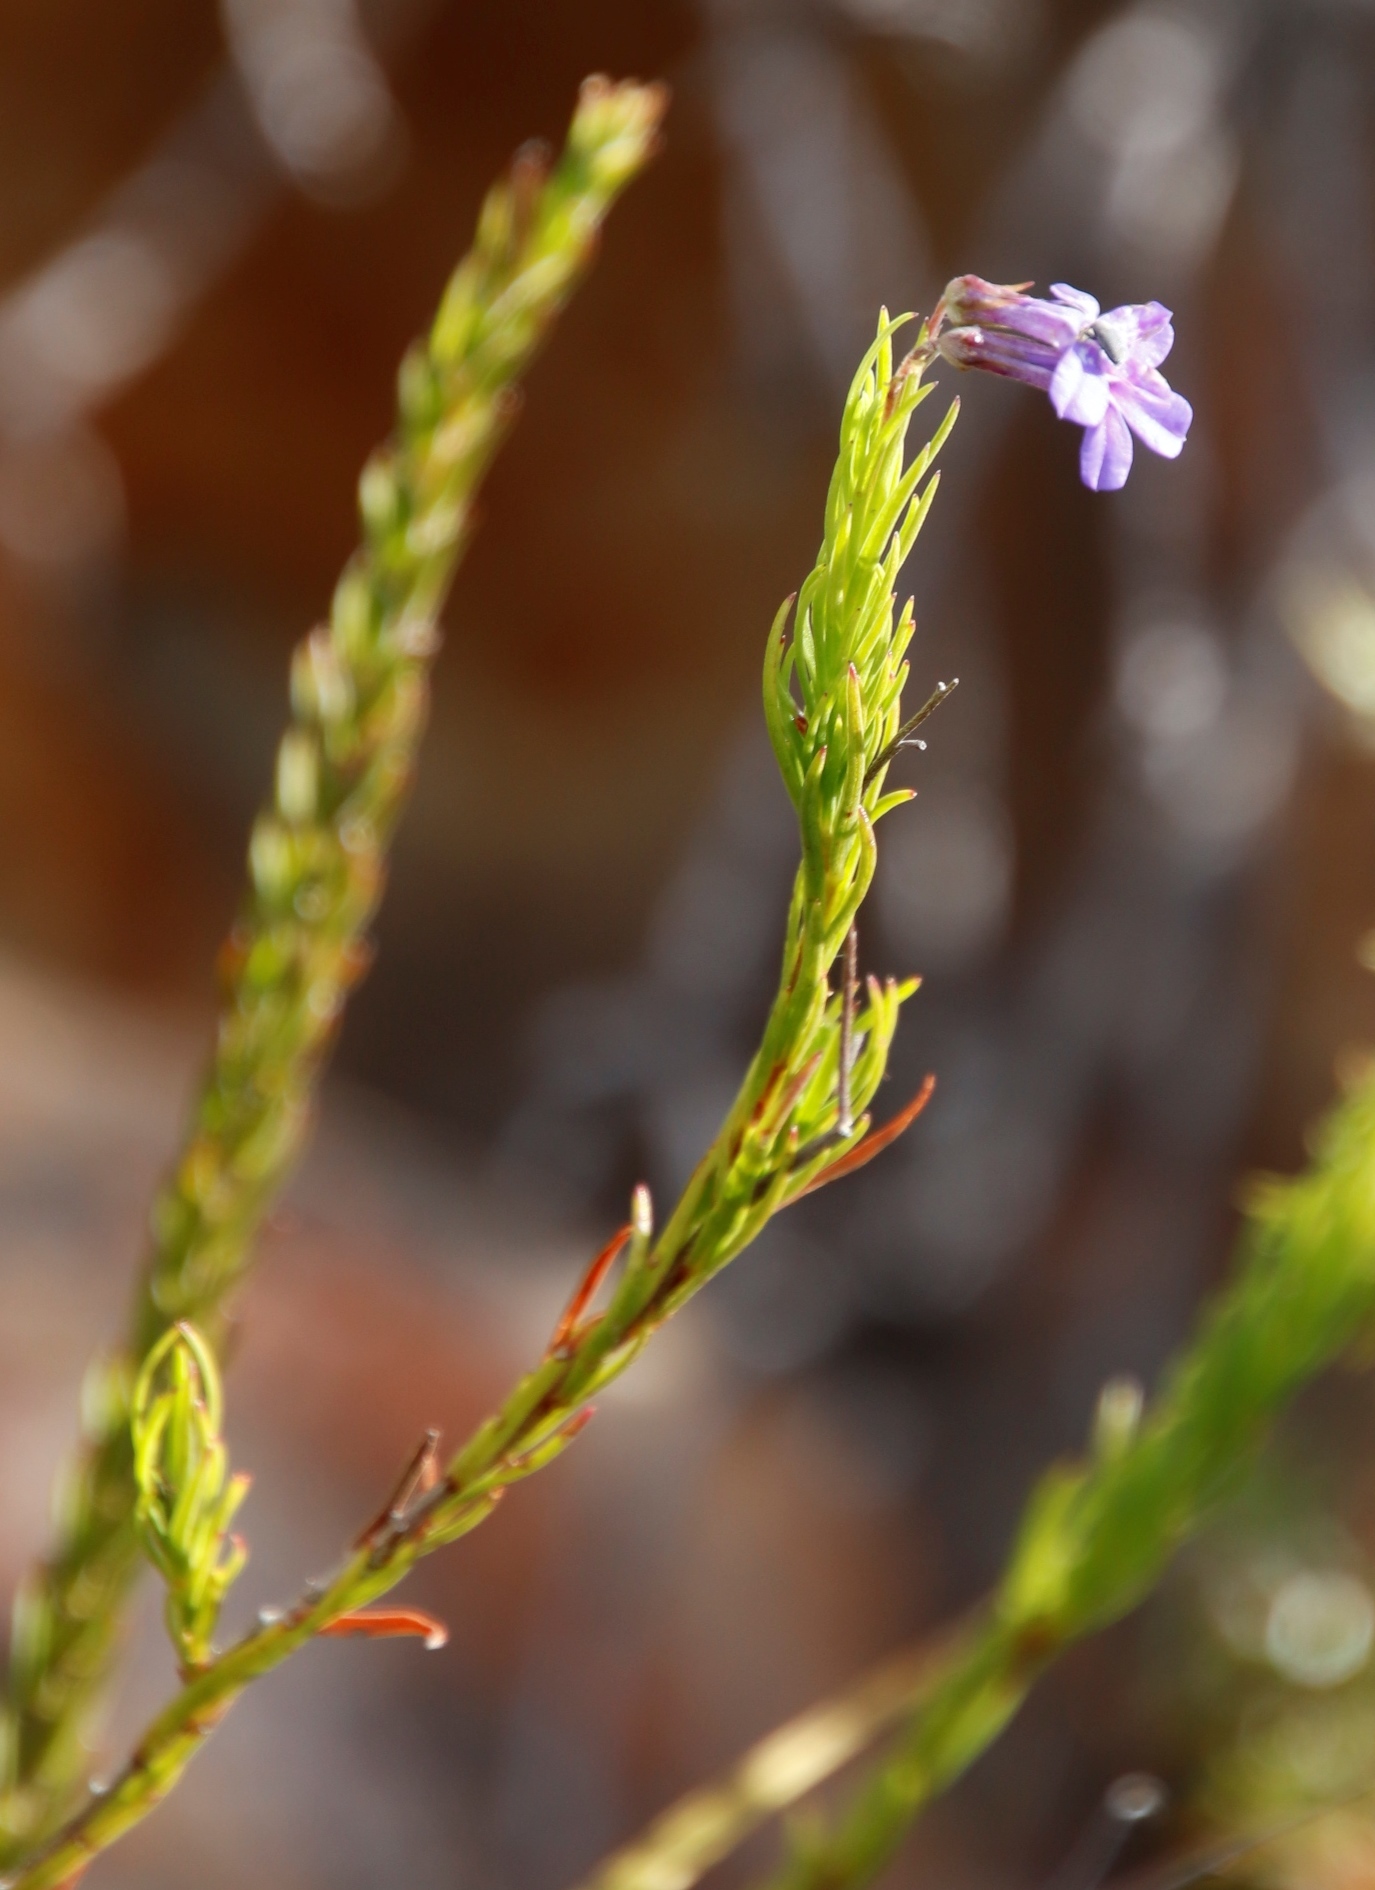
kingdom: Plantae
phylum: Tracheophyta
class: Magnoliopsida
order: Asterales
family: Campanulaceae
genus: Lobelia
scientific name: Lobelia pinifolia
